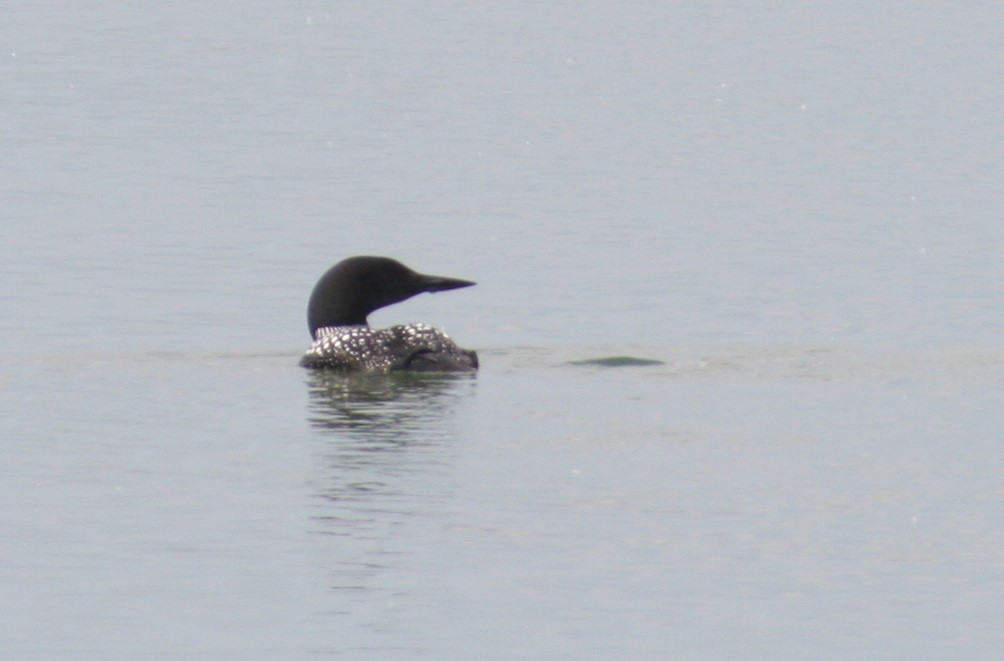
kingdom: Animalia
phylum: Chordata
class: Aves
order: Gaviiformes
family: Gaviidae
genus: Gavia
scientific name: Gavia immer
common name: Common loon
